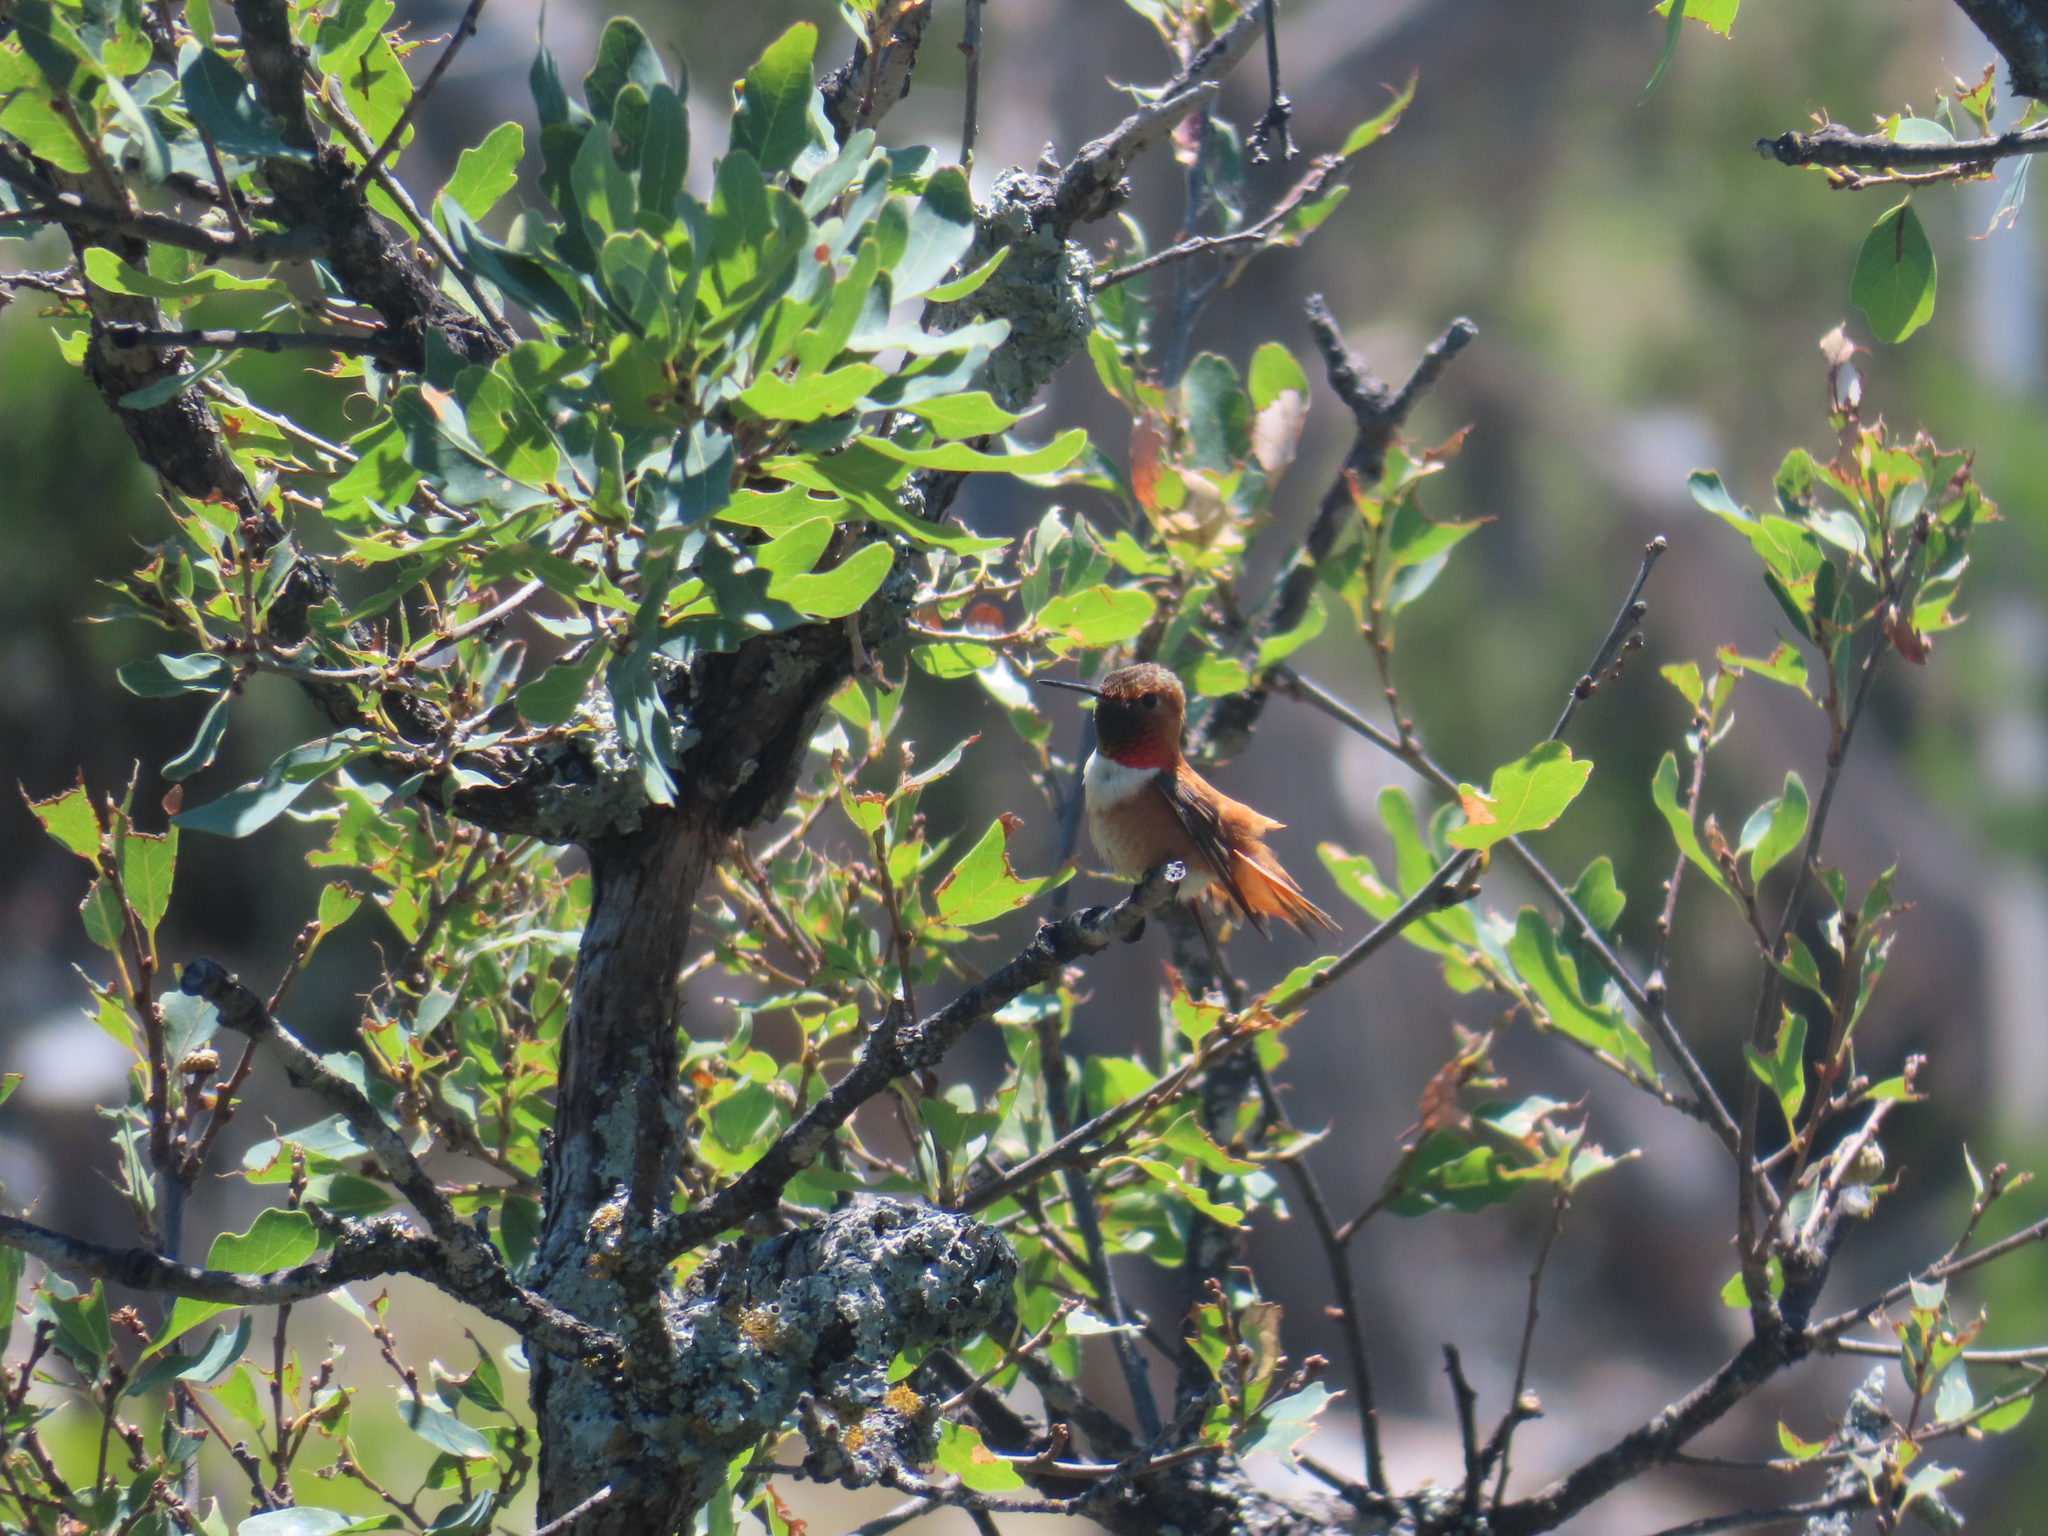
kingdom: Animalia
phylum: Chordata
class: Aves
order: Apodiformes
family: Trochilidae
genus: Selasphorus
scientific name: Selasphorus rufus
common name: Rufous hummingbird
